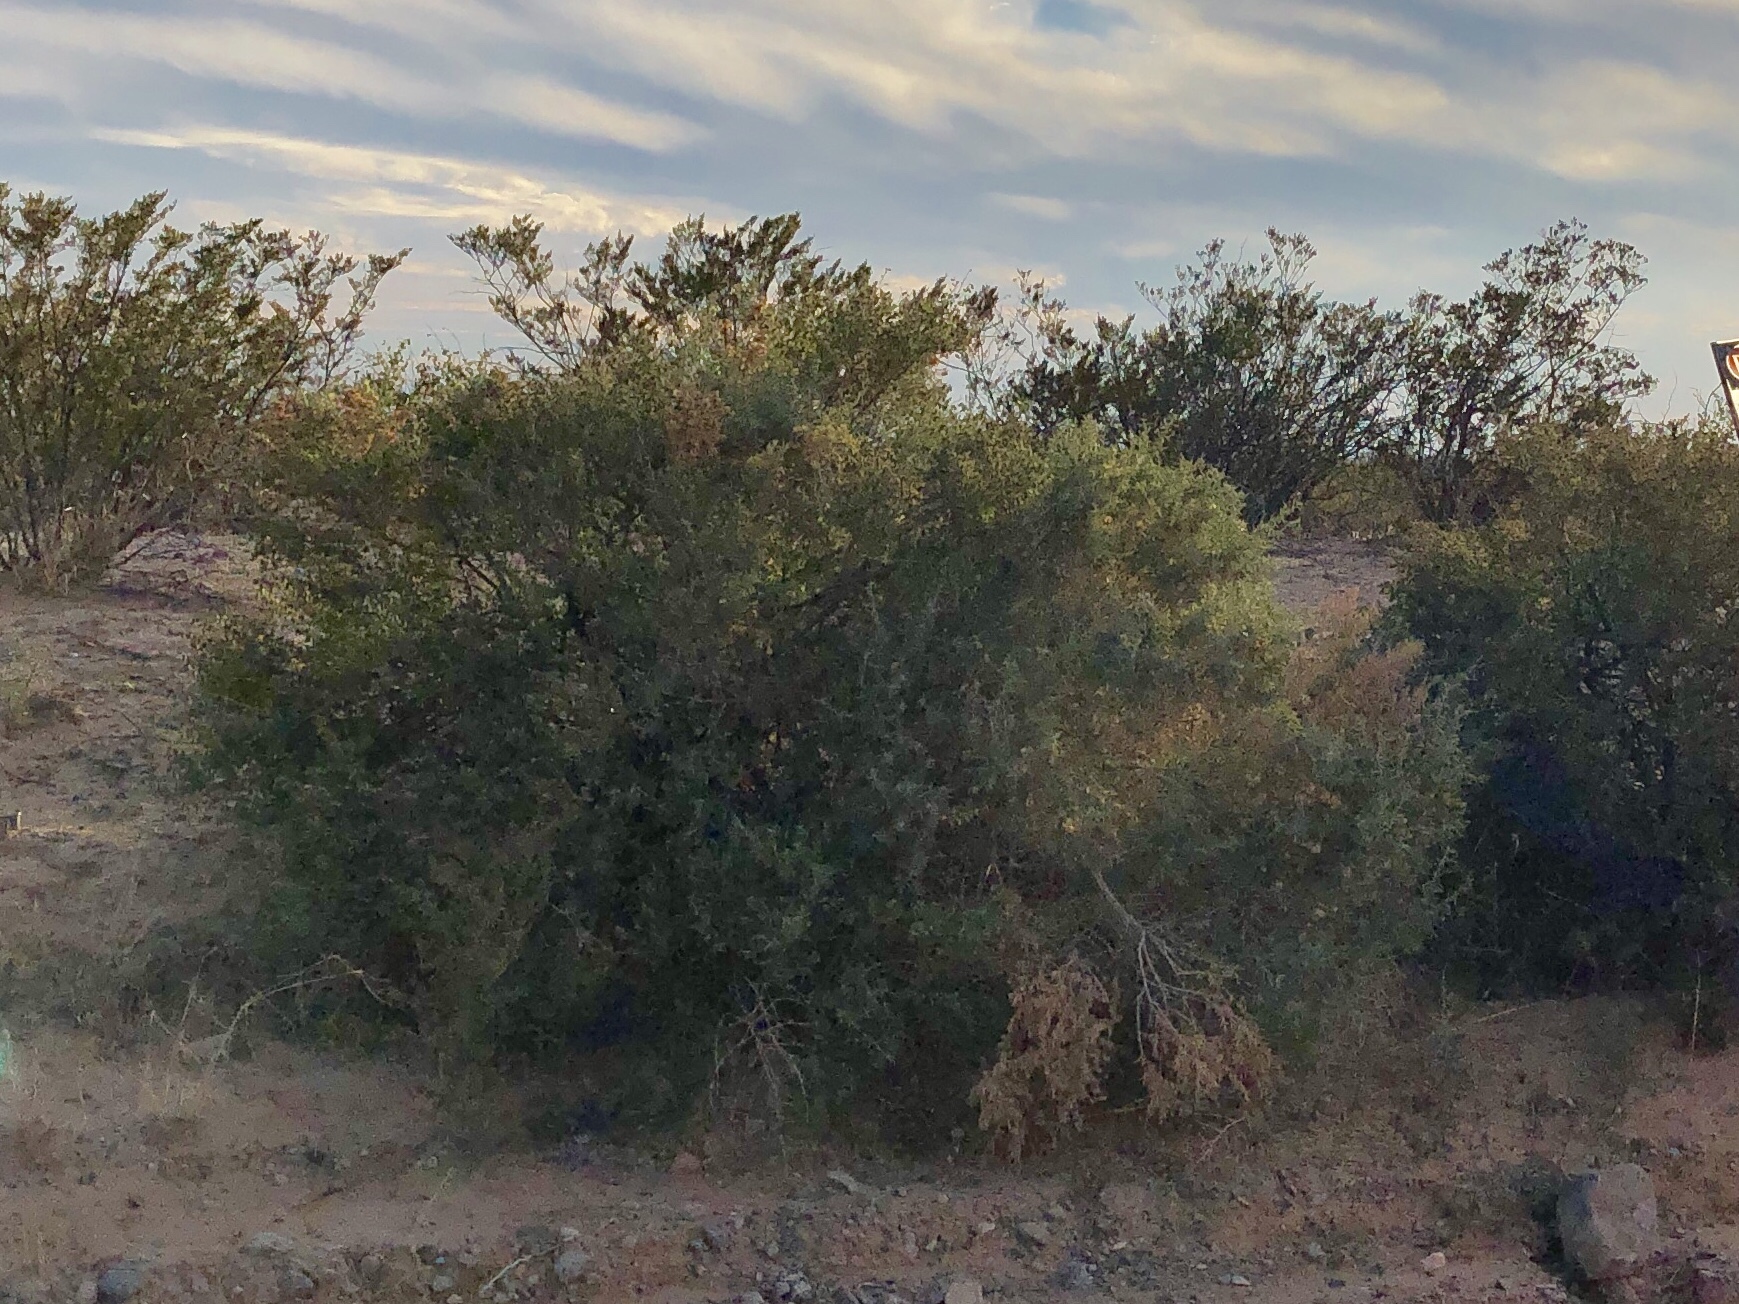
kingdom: Plantae
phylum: Tracheophyta
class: Magnoliopsida
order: Caryophyllales
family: Amaranthaceae
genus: Atriplex
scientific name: Atriplex canescens
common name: Four-wing saltbush
